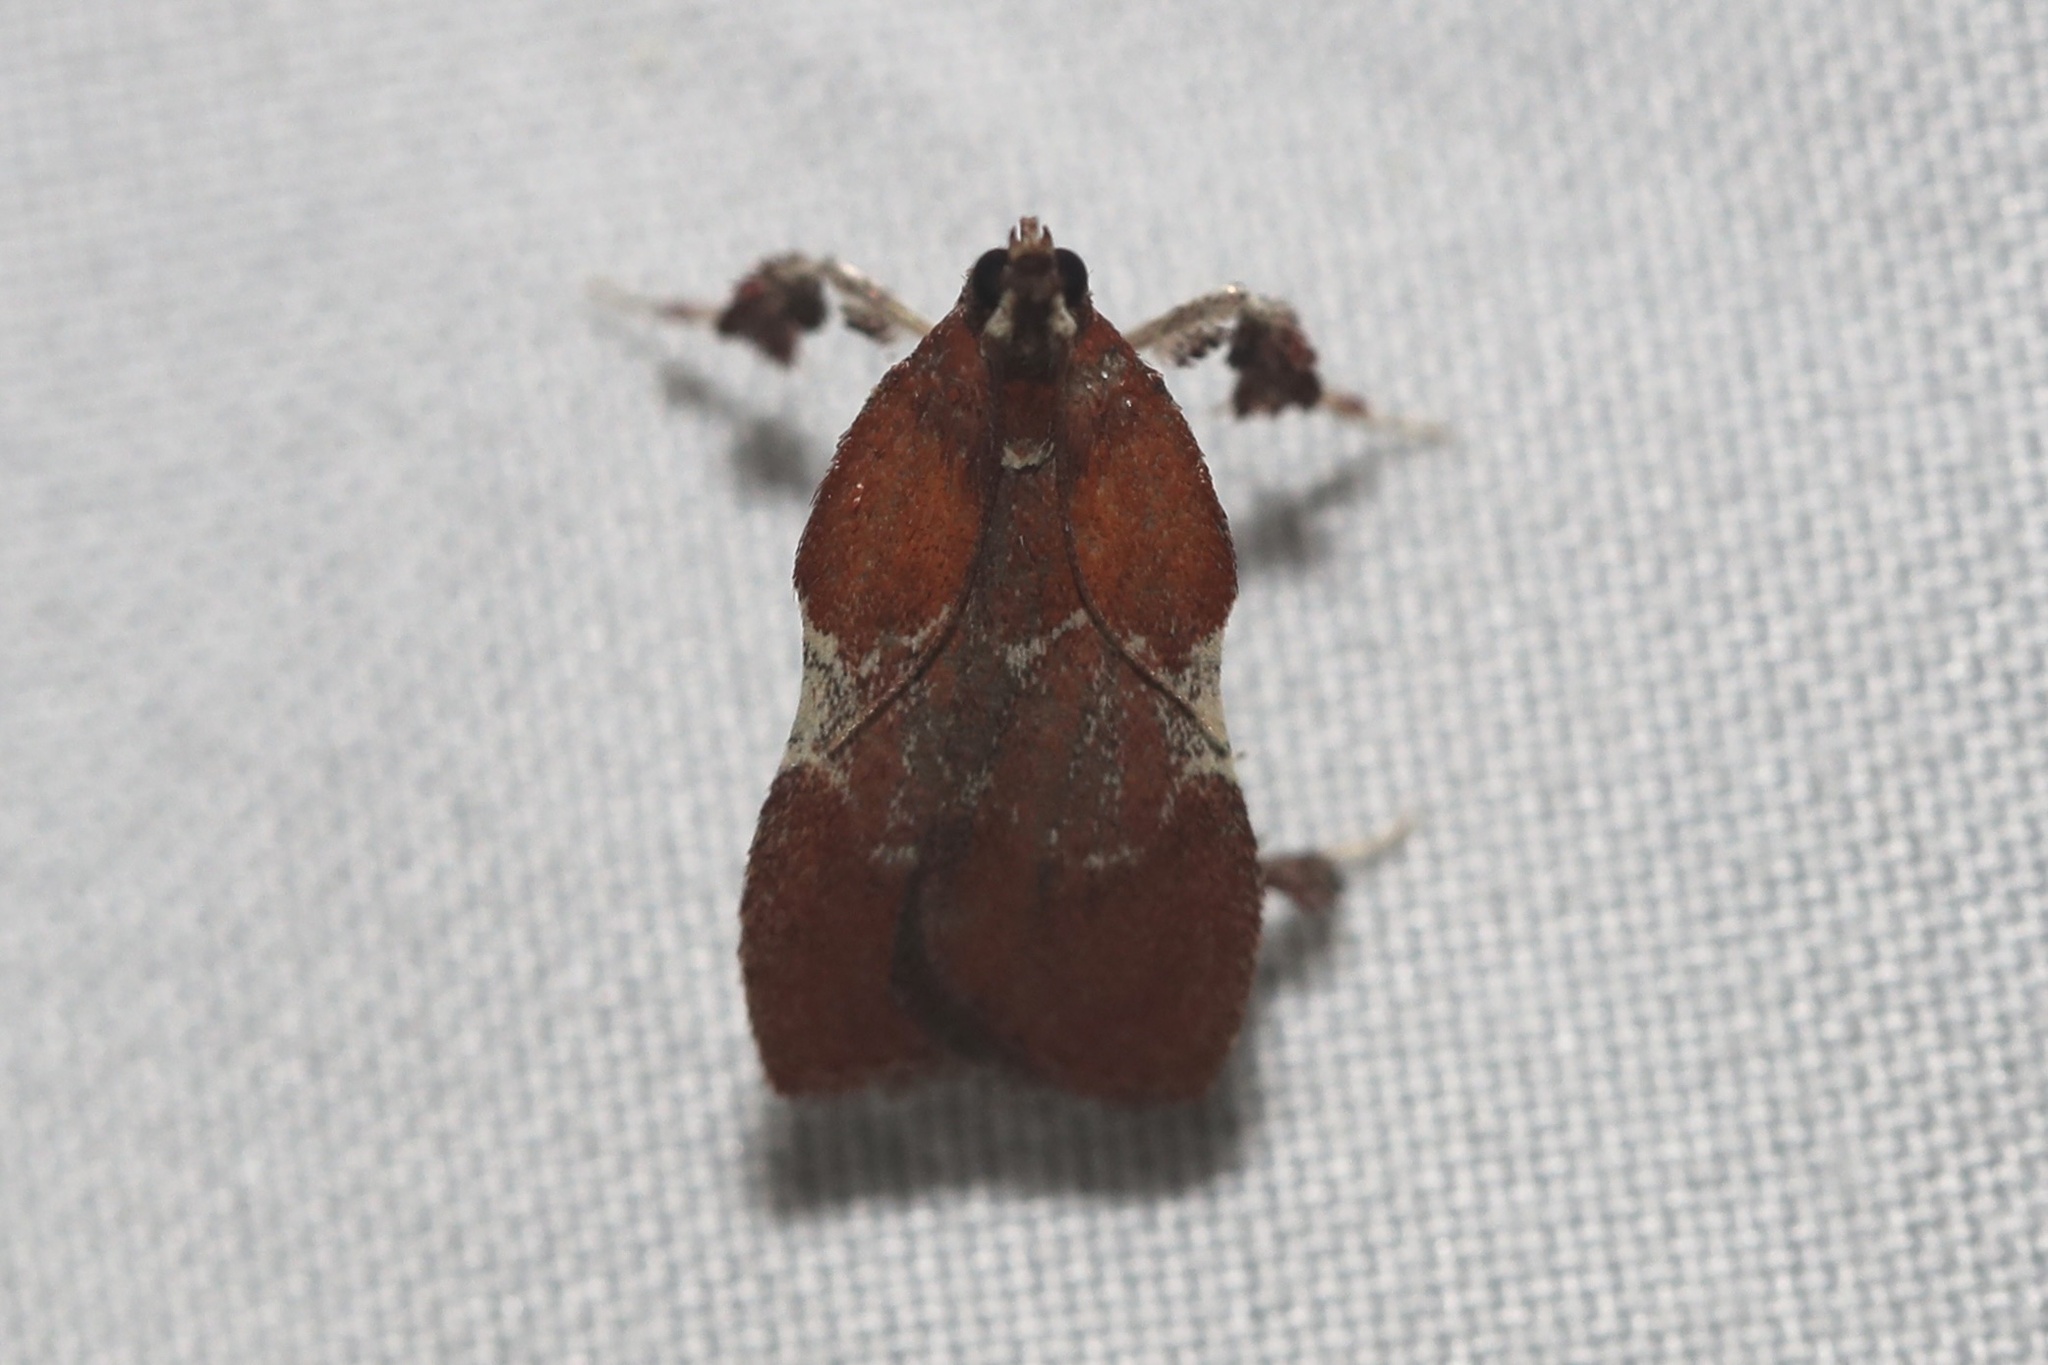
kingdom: Animalia
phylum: Arthropoda
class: Insecta
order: Lepidoptera
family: Pyralidae
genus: Galasa
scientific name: Galasa nigrinodis
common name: Boxwood leaftier moth
